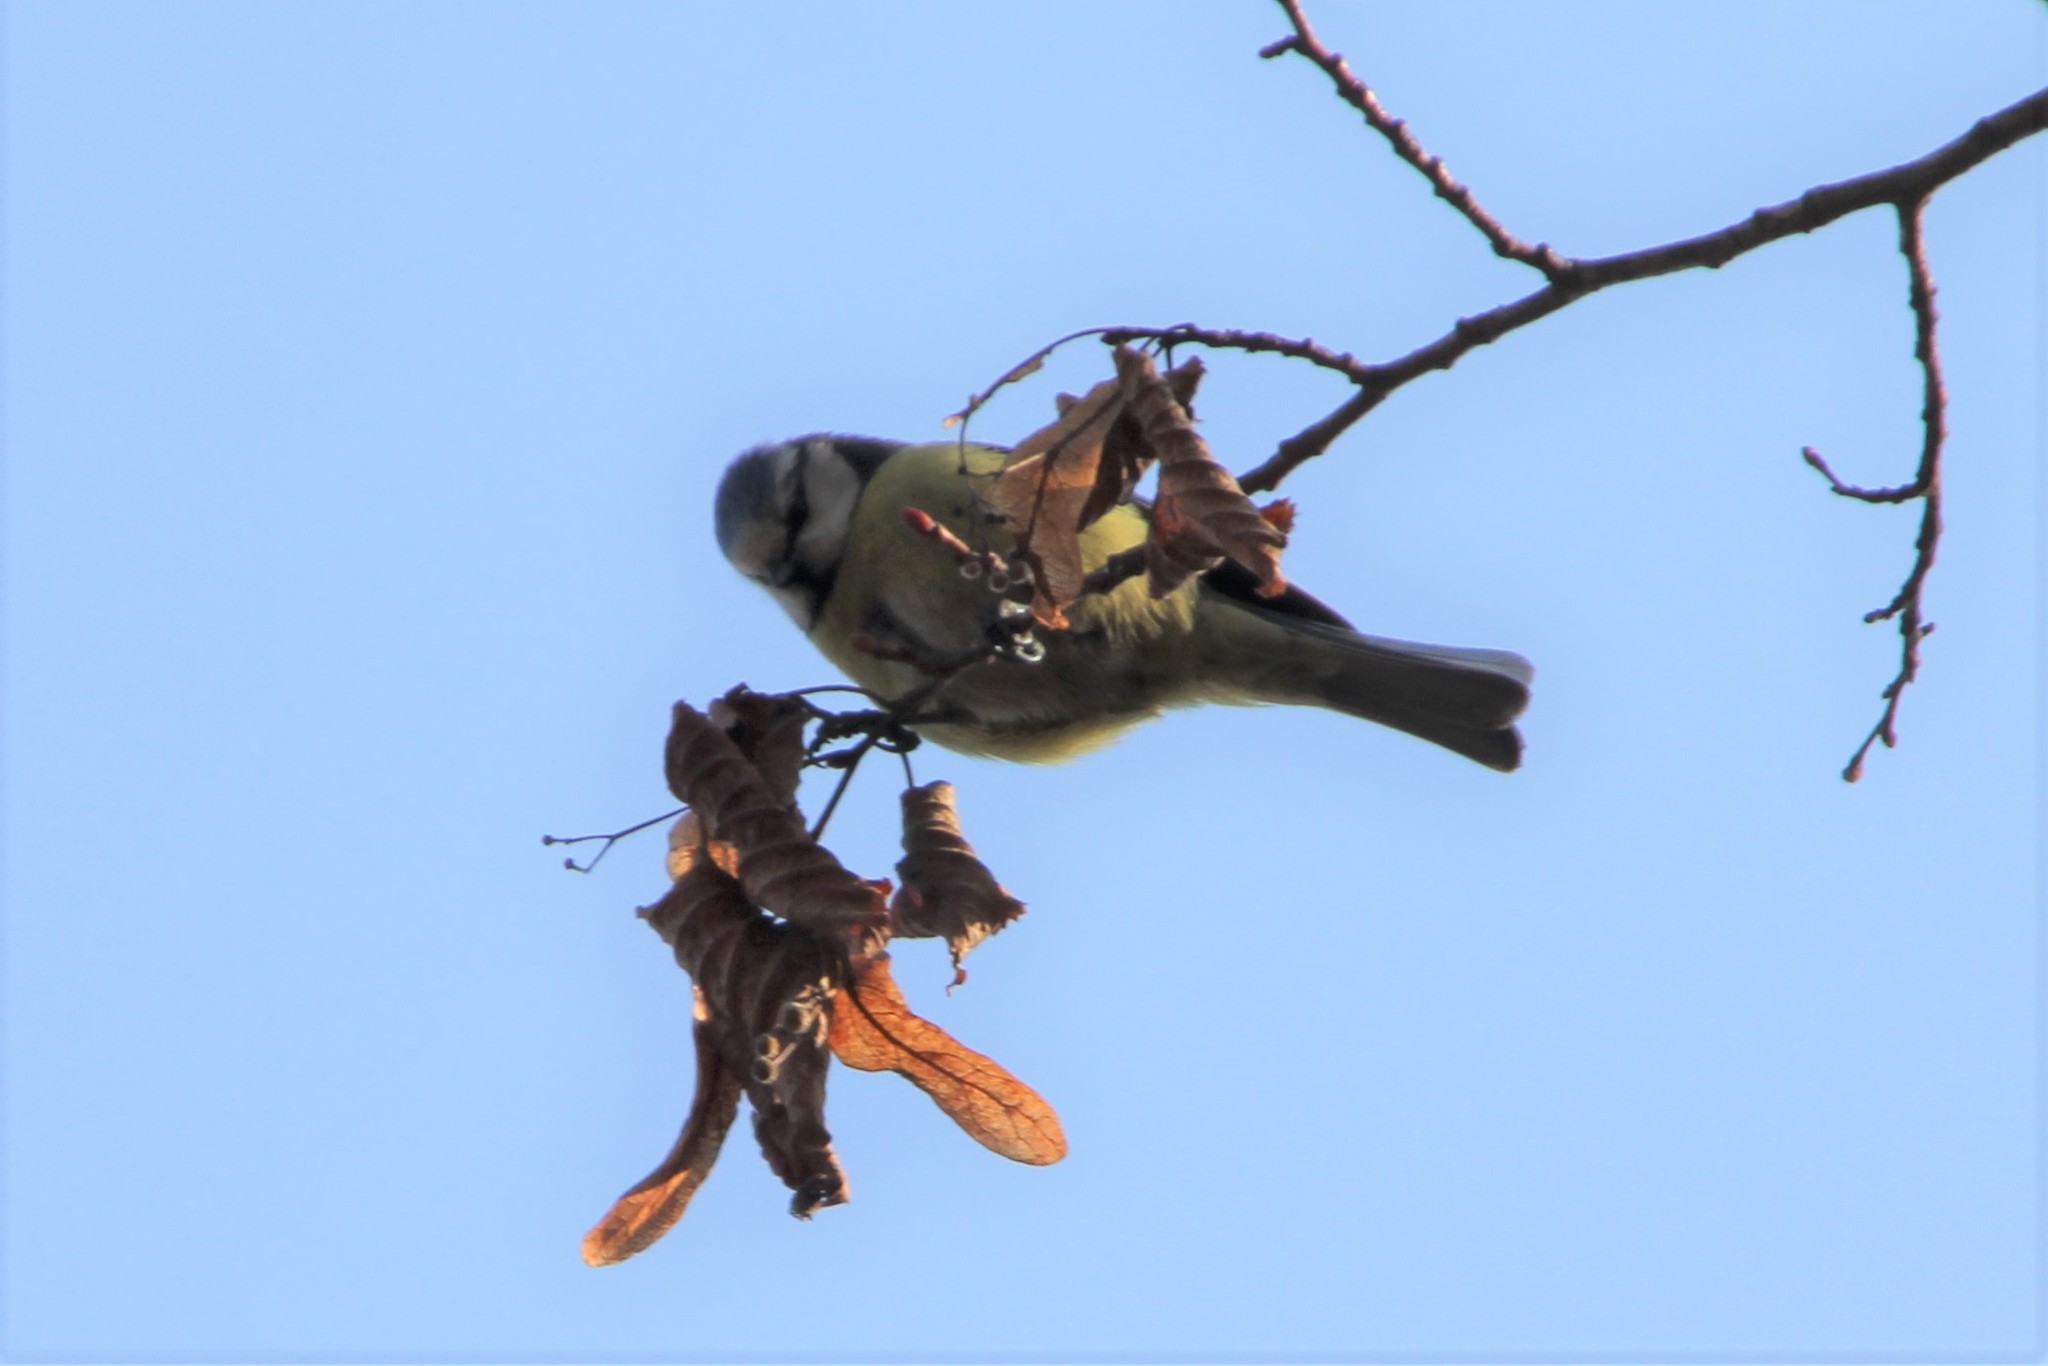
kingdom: Animalia
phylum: Chordata
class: Aves
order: Passeriformes
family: Paridae
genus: Cyanistes
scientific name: Cyanistes caeruleus
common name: Eurasian blue tit
